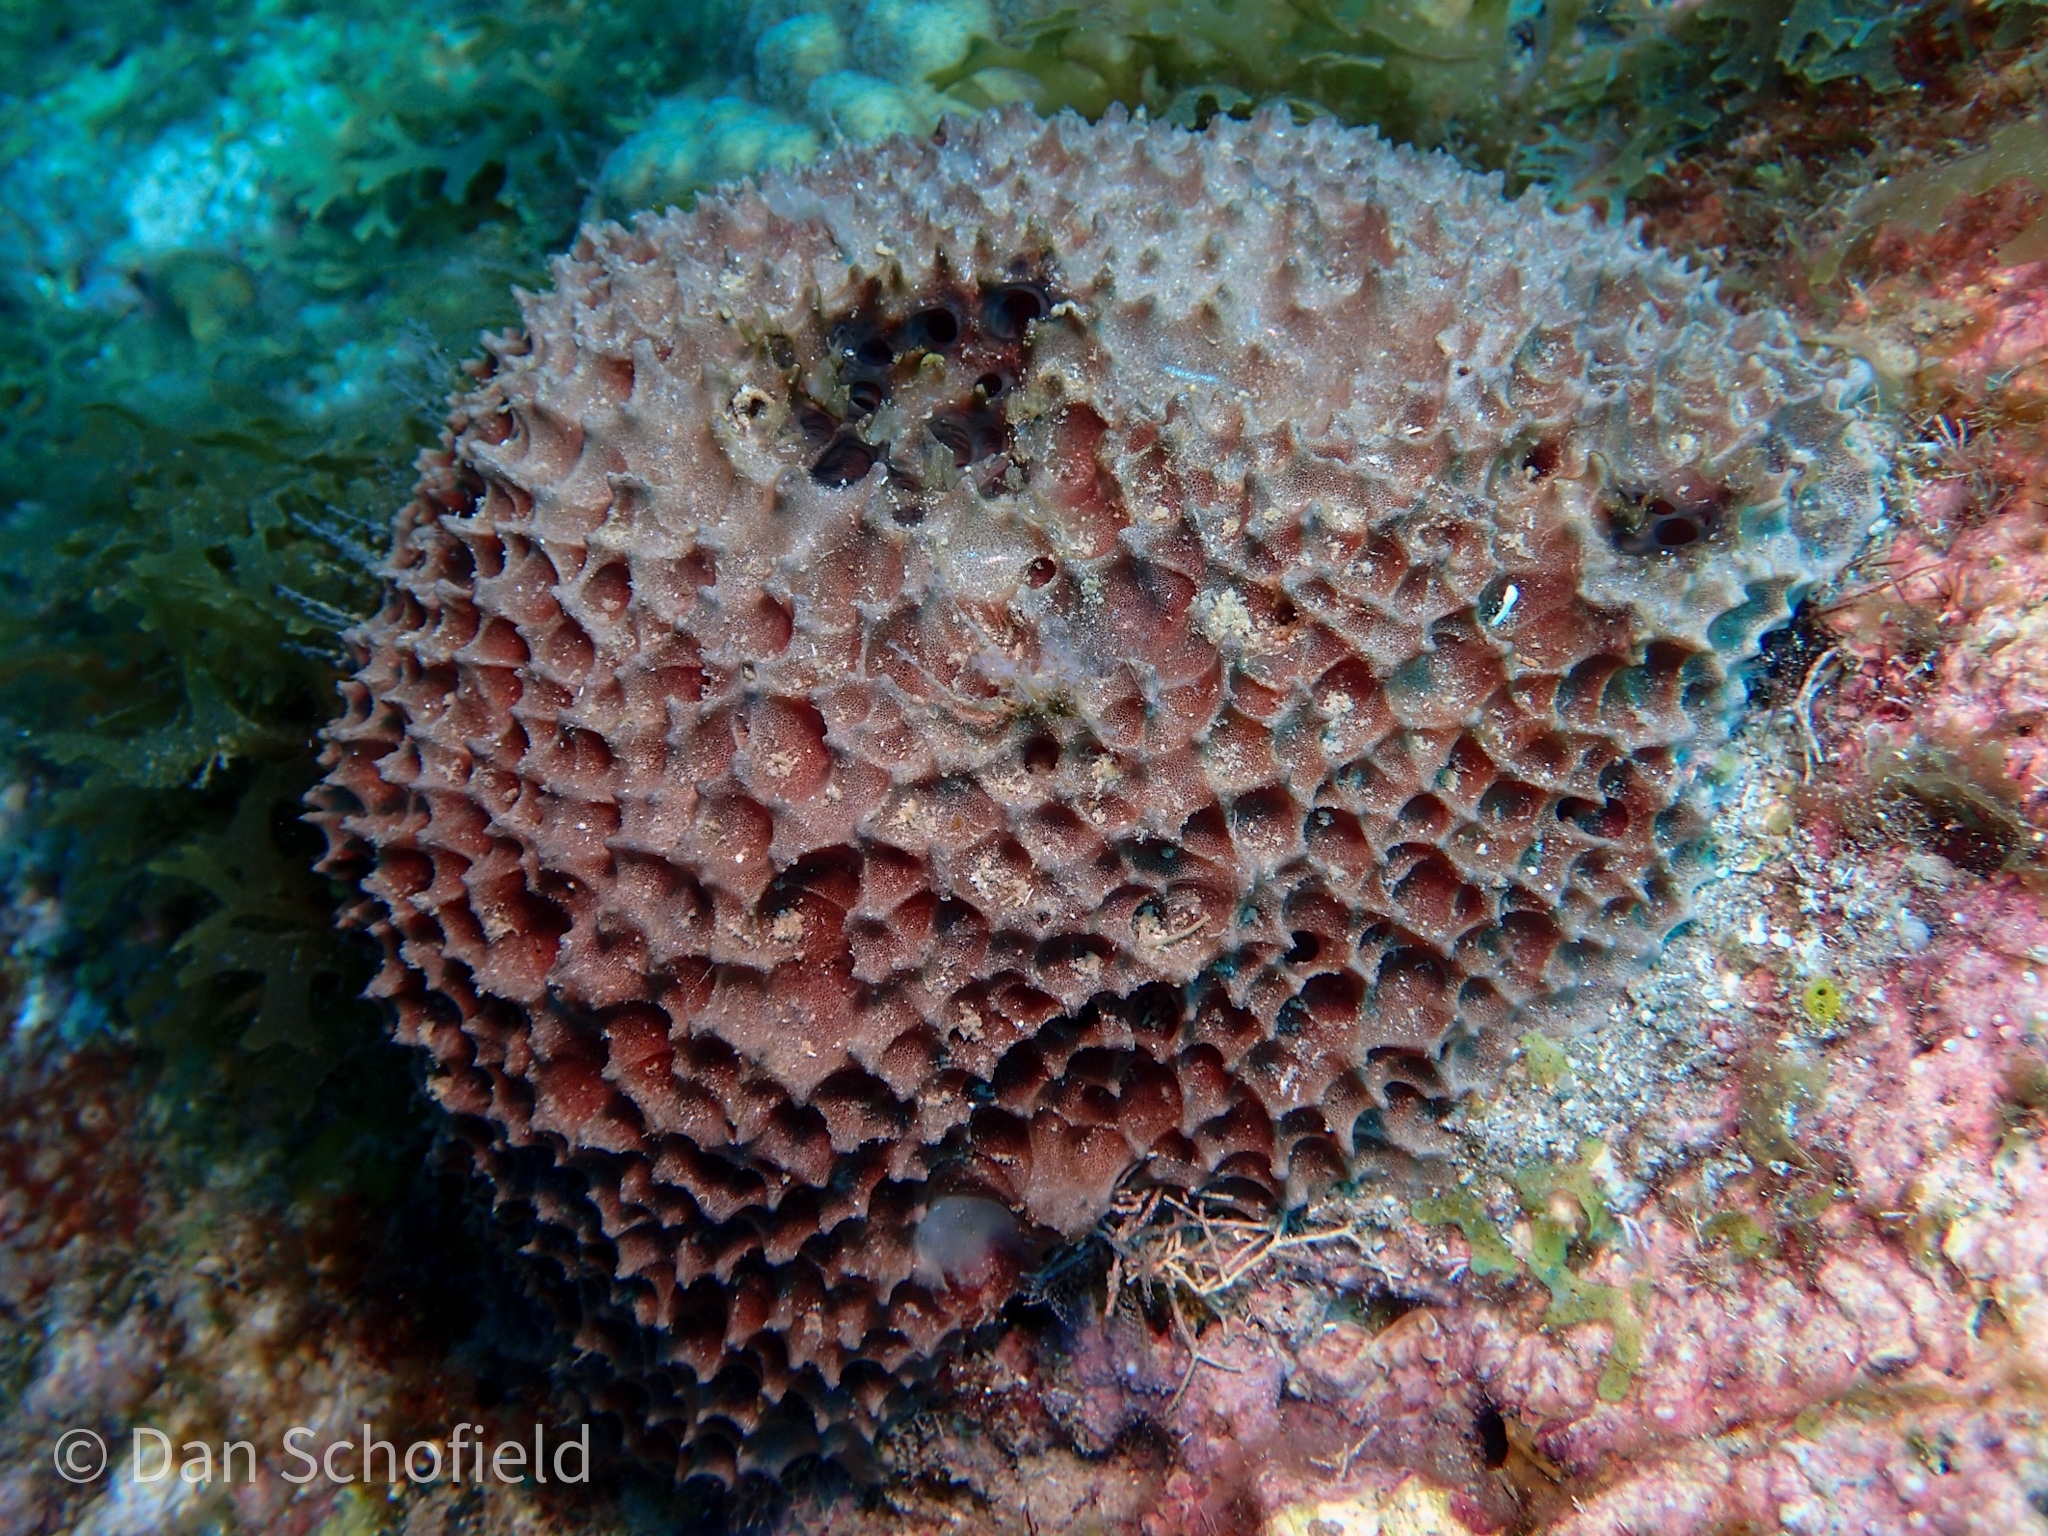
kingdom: Animalia
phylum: Porifera
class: Demospongiae
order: Dictyoceratida
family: Irciniidae
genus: Ircinia
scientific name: Ircinia felix
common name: Stinker sponge
